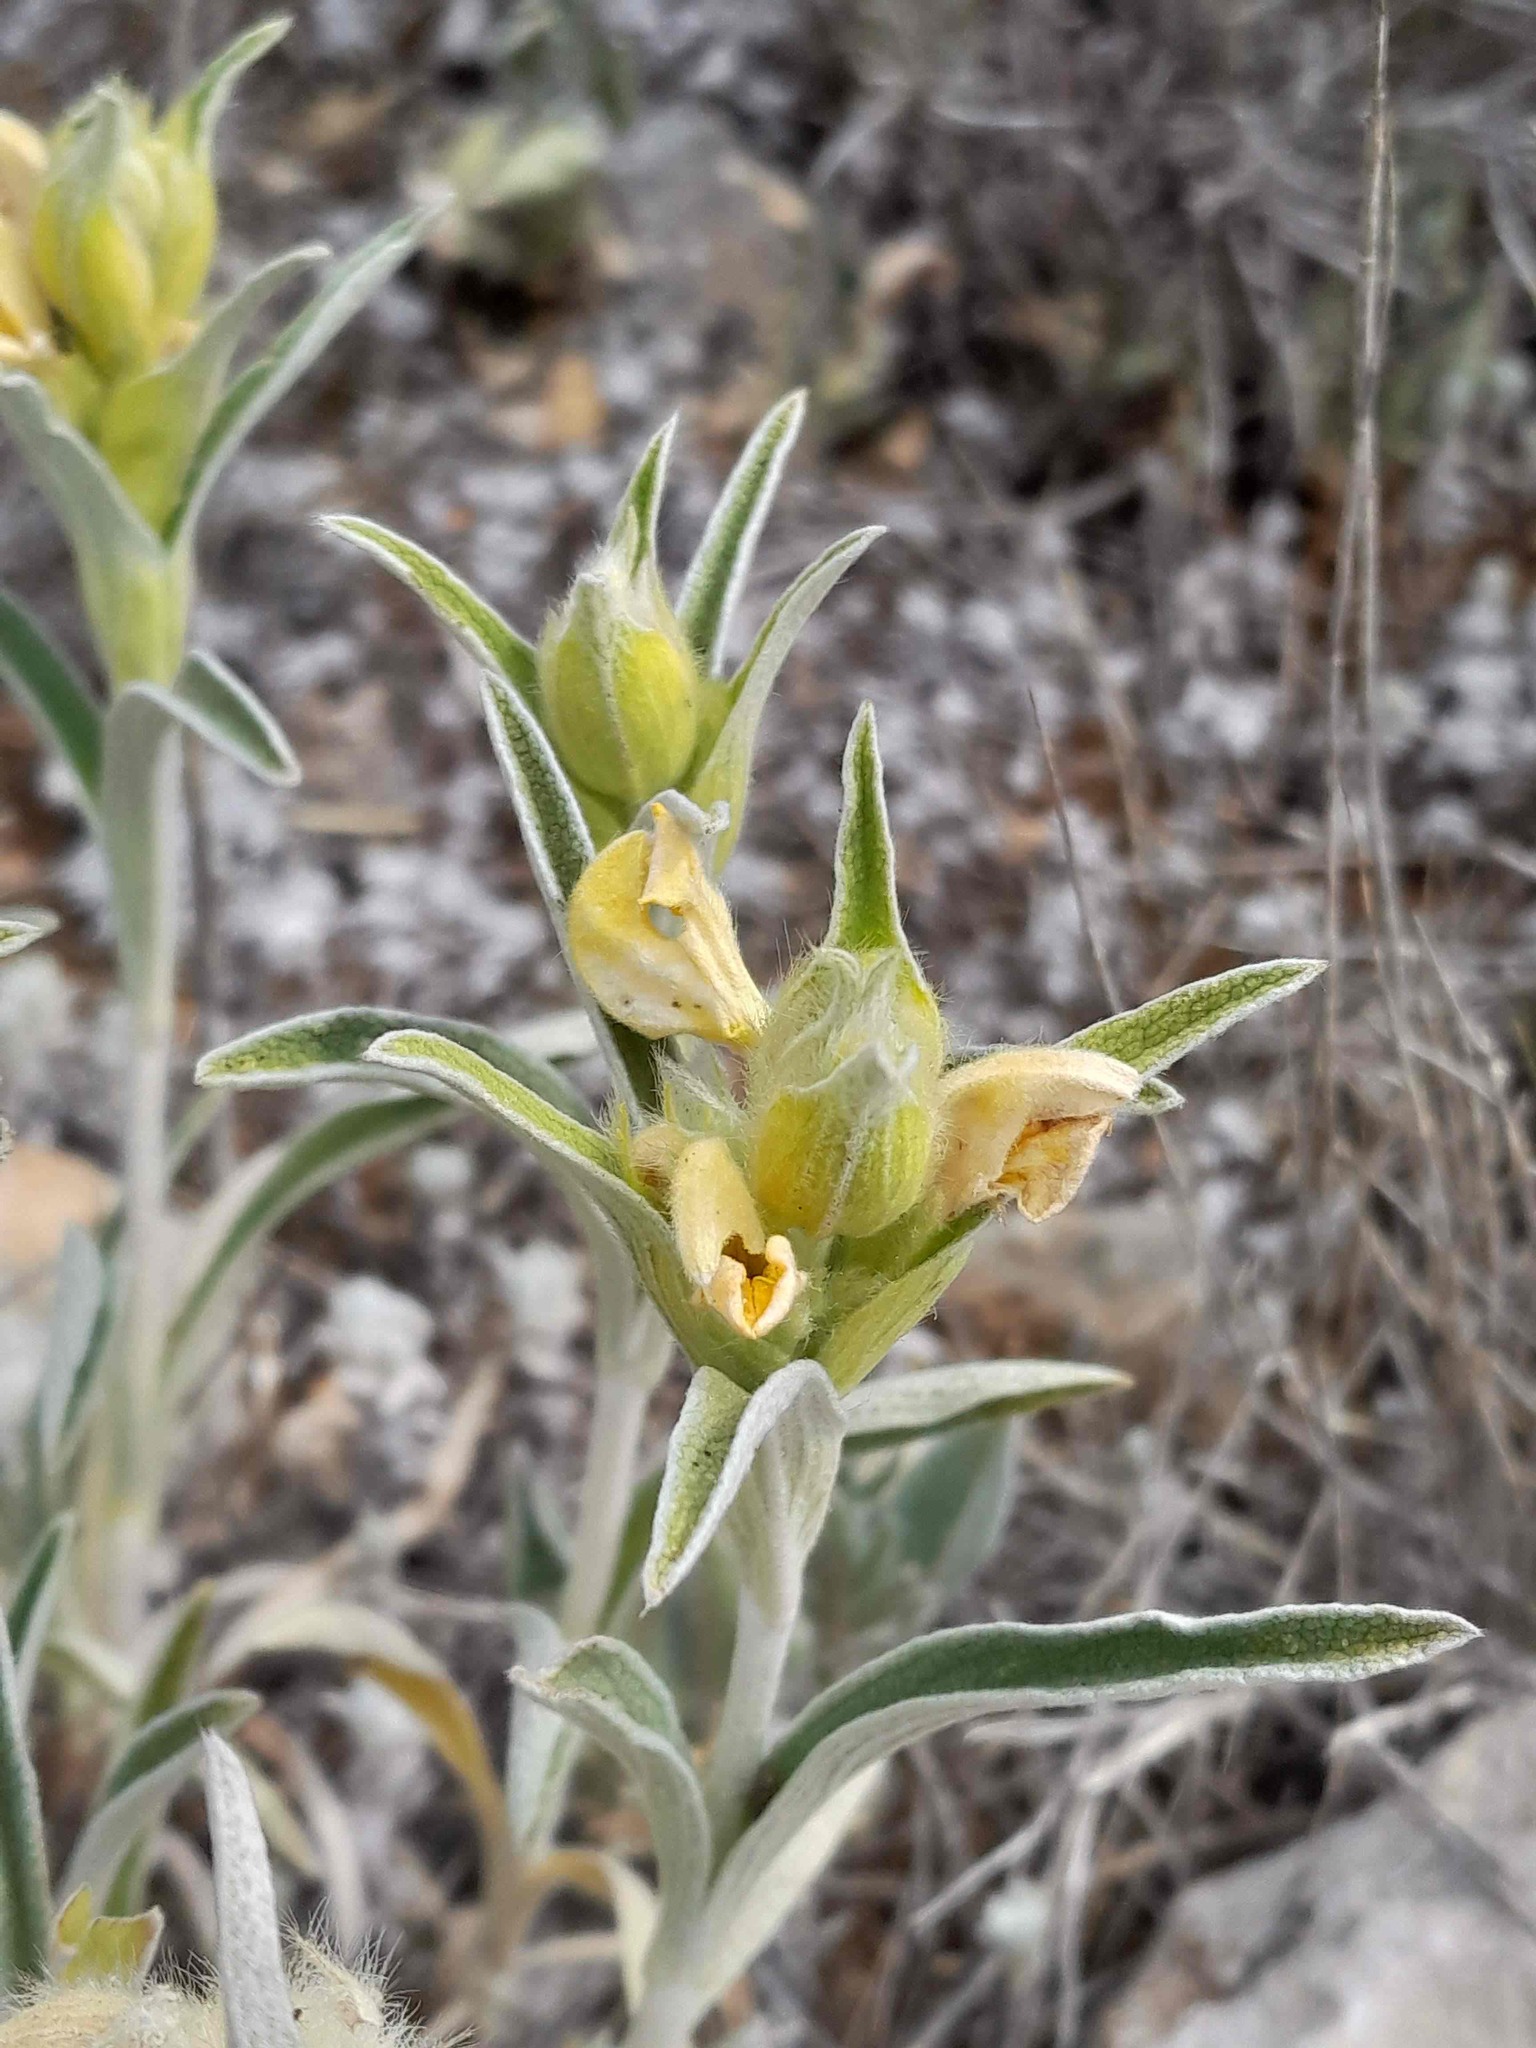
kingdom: Plantae
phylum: Tracheophyta
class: Magnoliopsida
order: Lamiales
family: Lamiaceae
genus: Phlomis
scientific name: Phlomis lychnitis
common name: Lampwickplant
